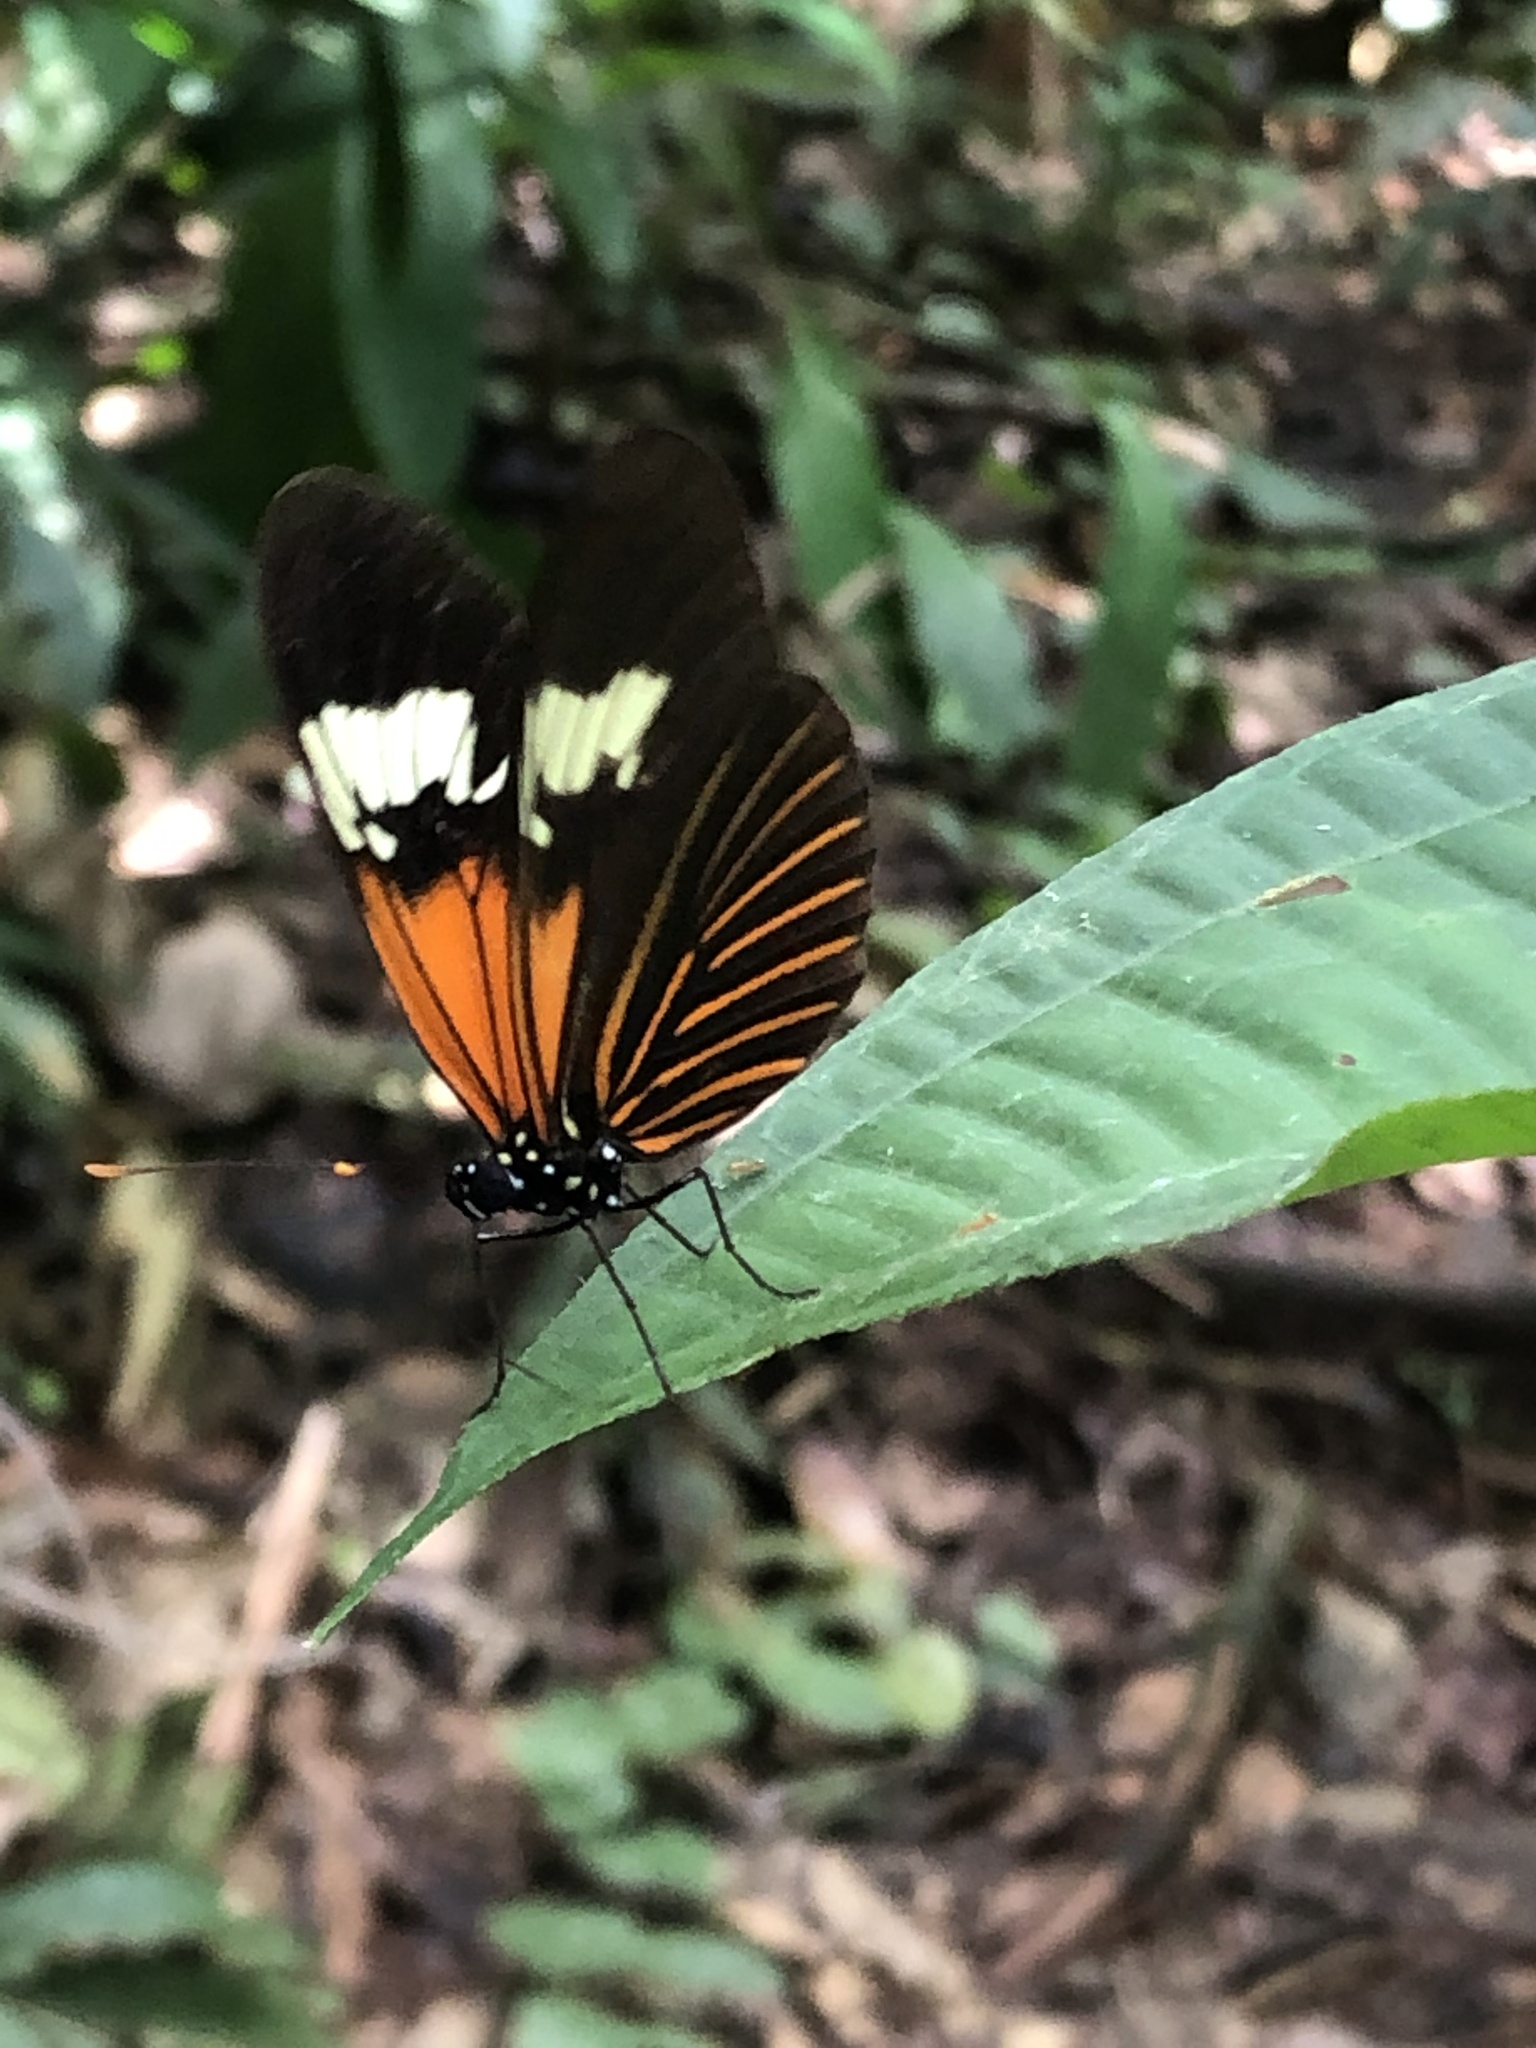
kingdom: Animalia
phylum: Arthropoda
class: Insecta
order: Lepidoptera
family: Nymphalidae
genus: Heliconius
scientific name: Heliconius aoede
